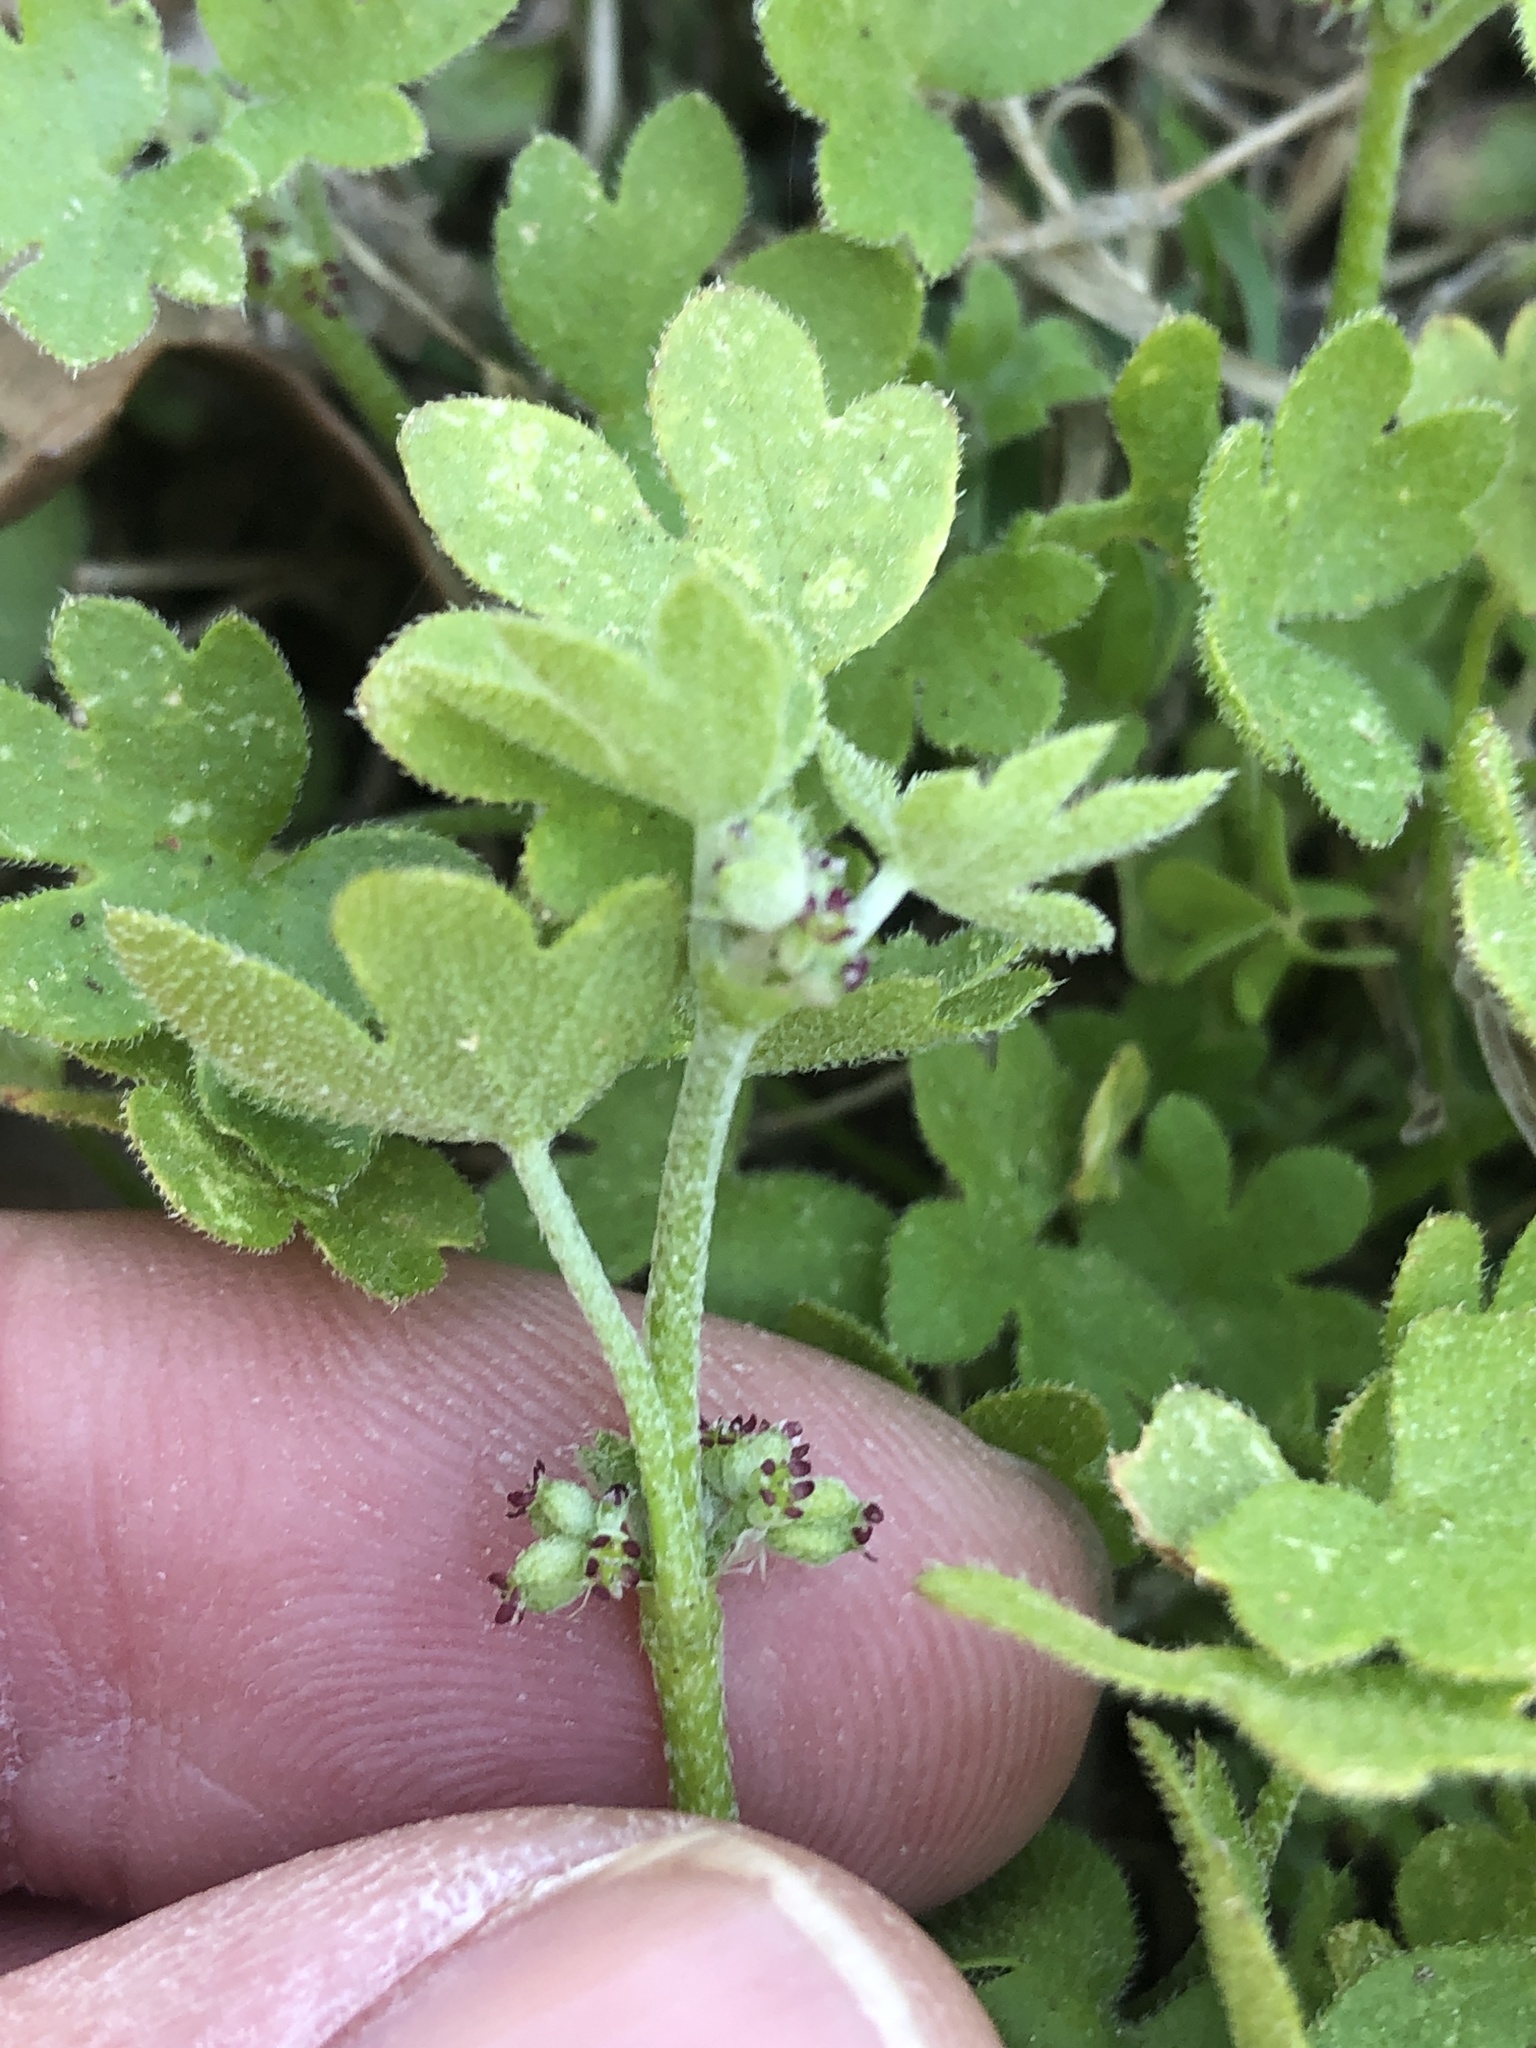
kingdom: Plantae
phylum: Tracheophyta
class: Magnoliopsida
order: Apiales
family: Apiaceae
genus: Bowlesia
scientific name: Bowlesia incana
